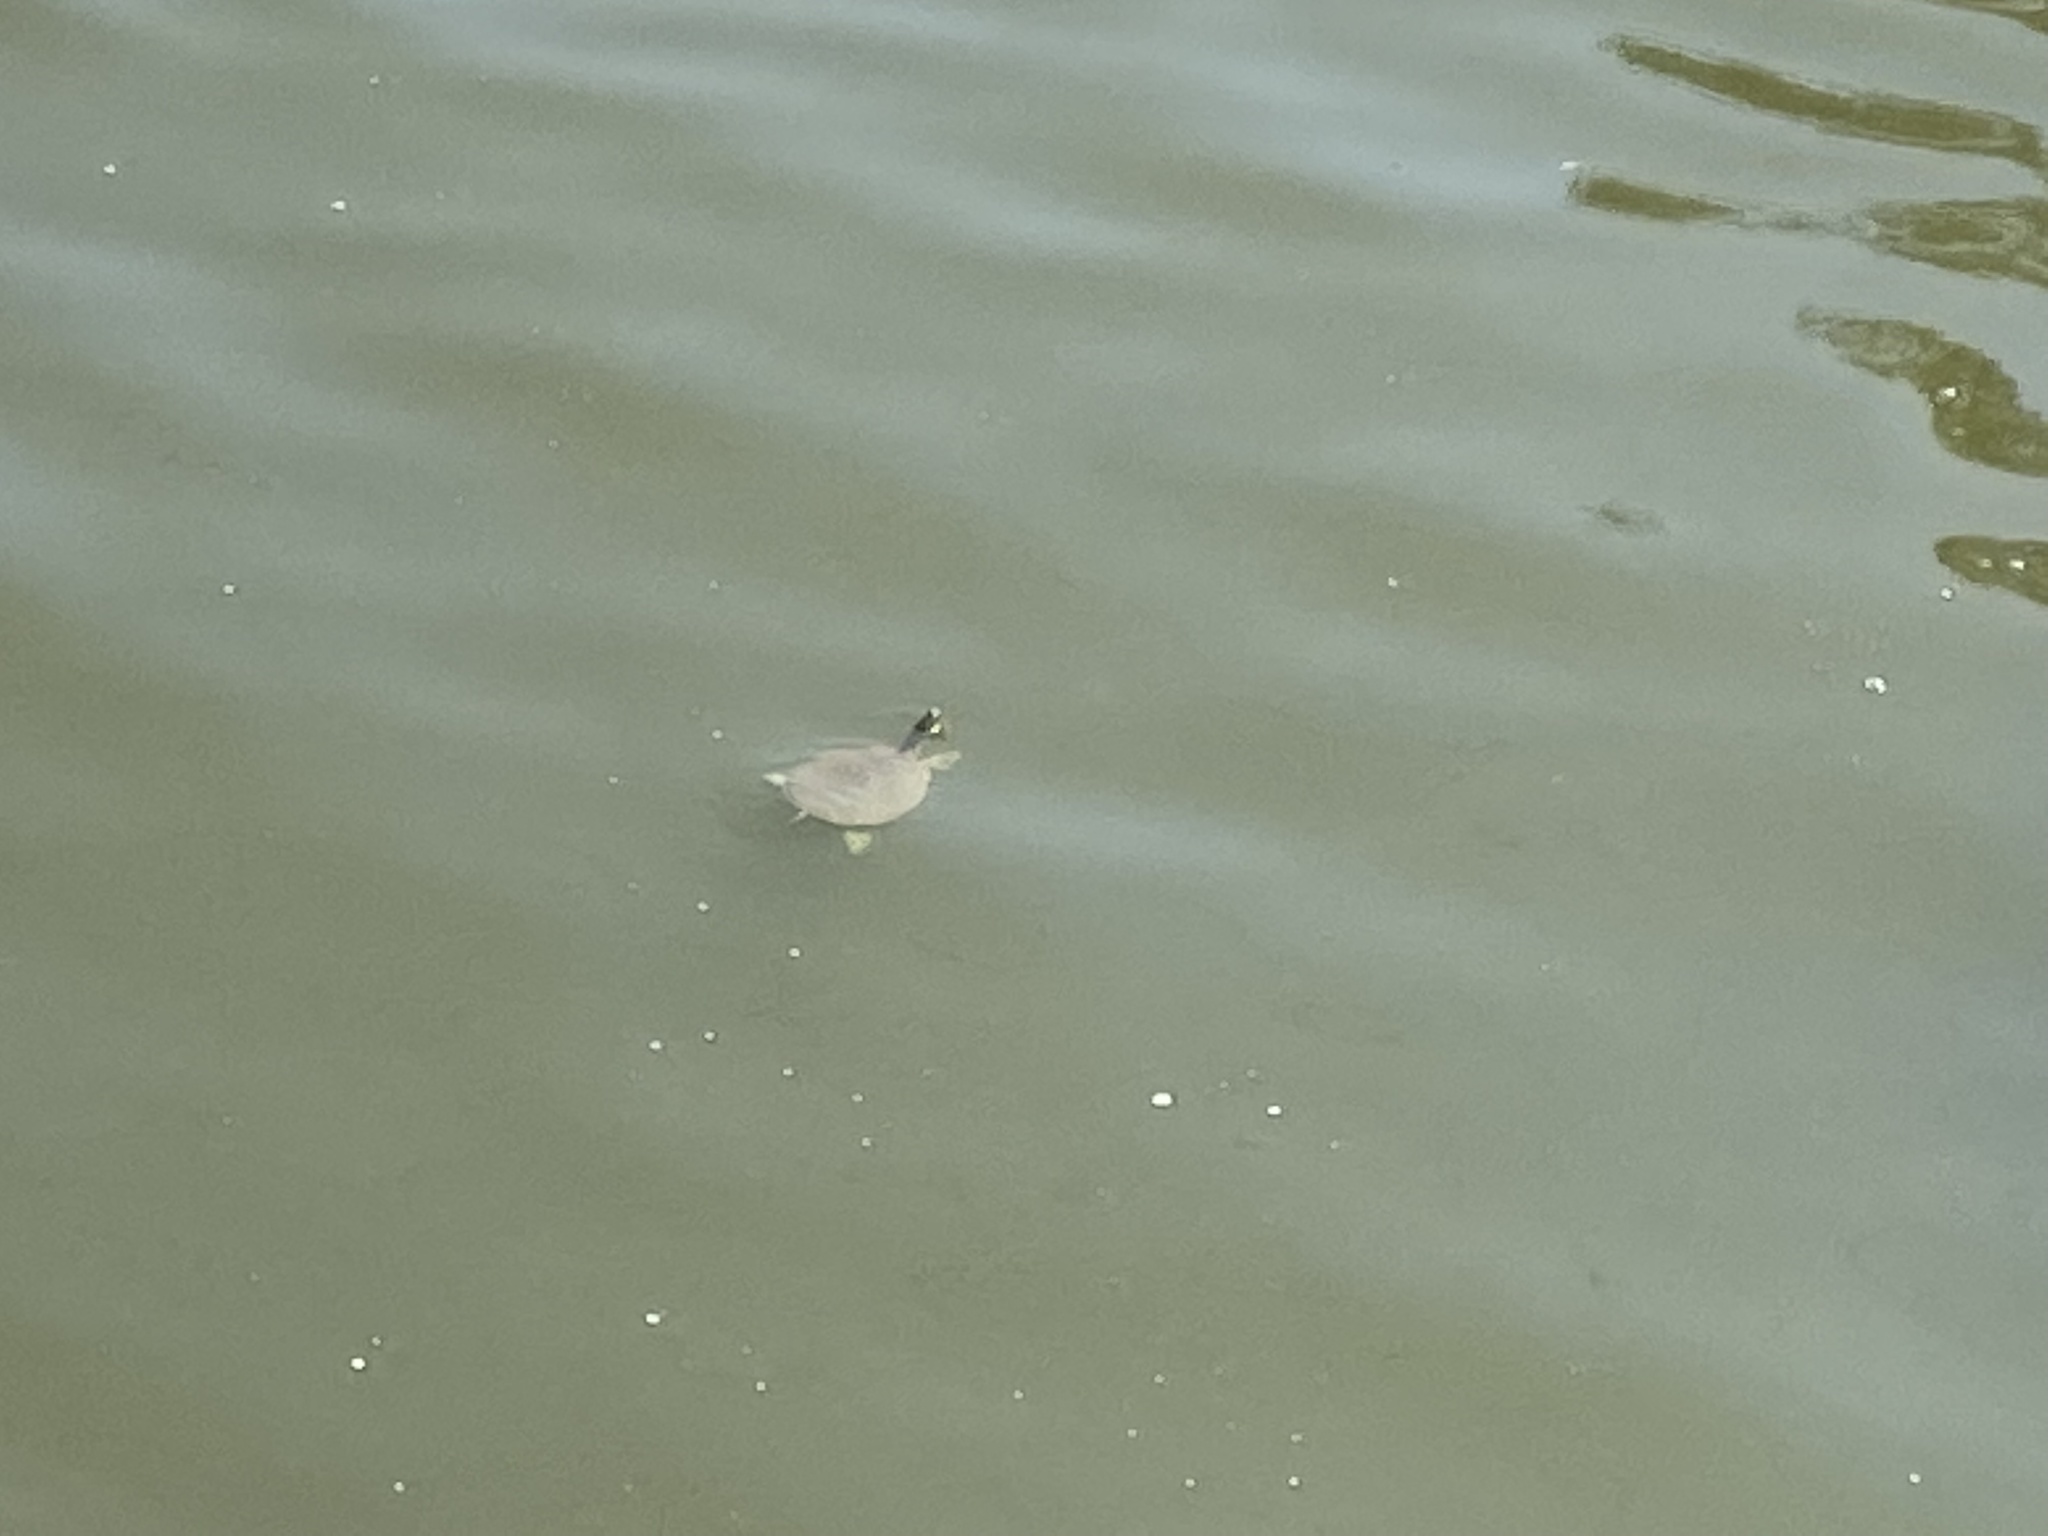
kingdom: Animalia
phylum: Chordata
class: Testudines
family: Trionychidae
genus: Apalone
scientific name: Apalone spinifera
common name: Spiny softshell turtle
